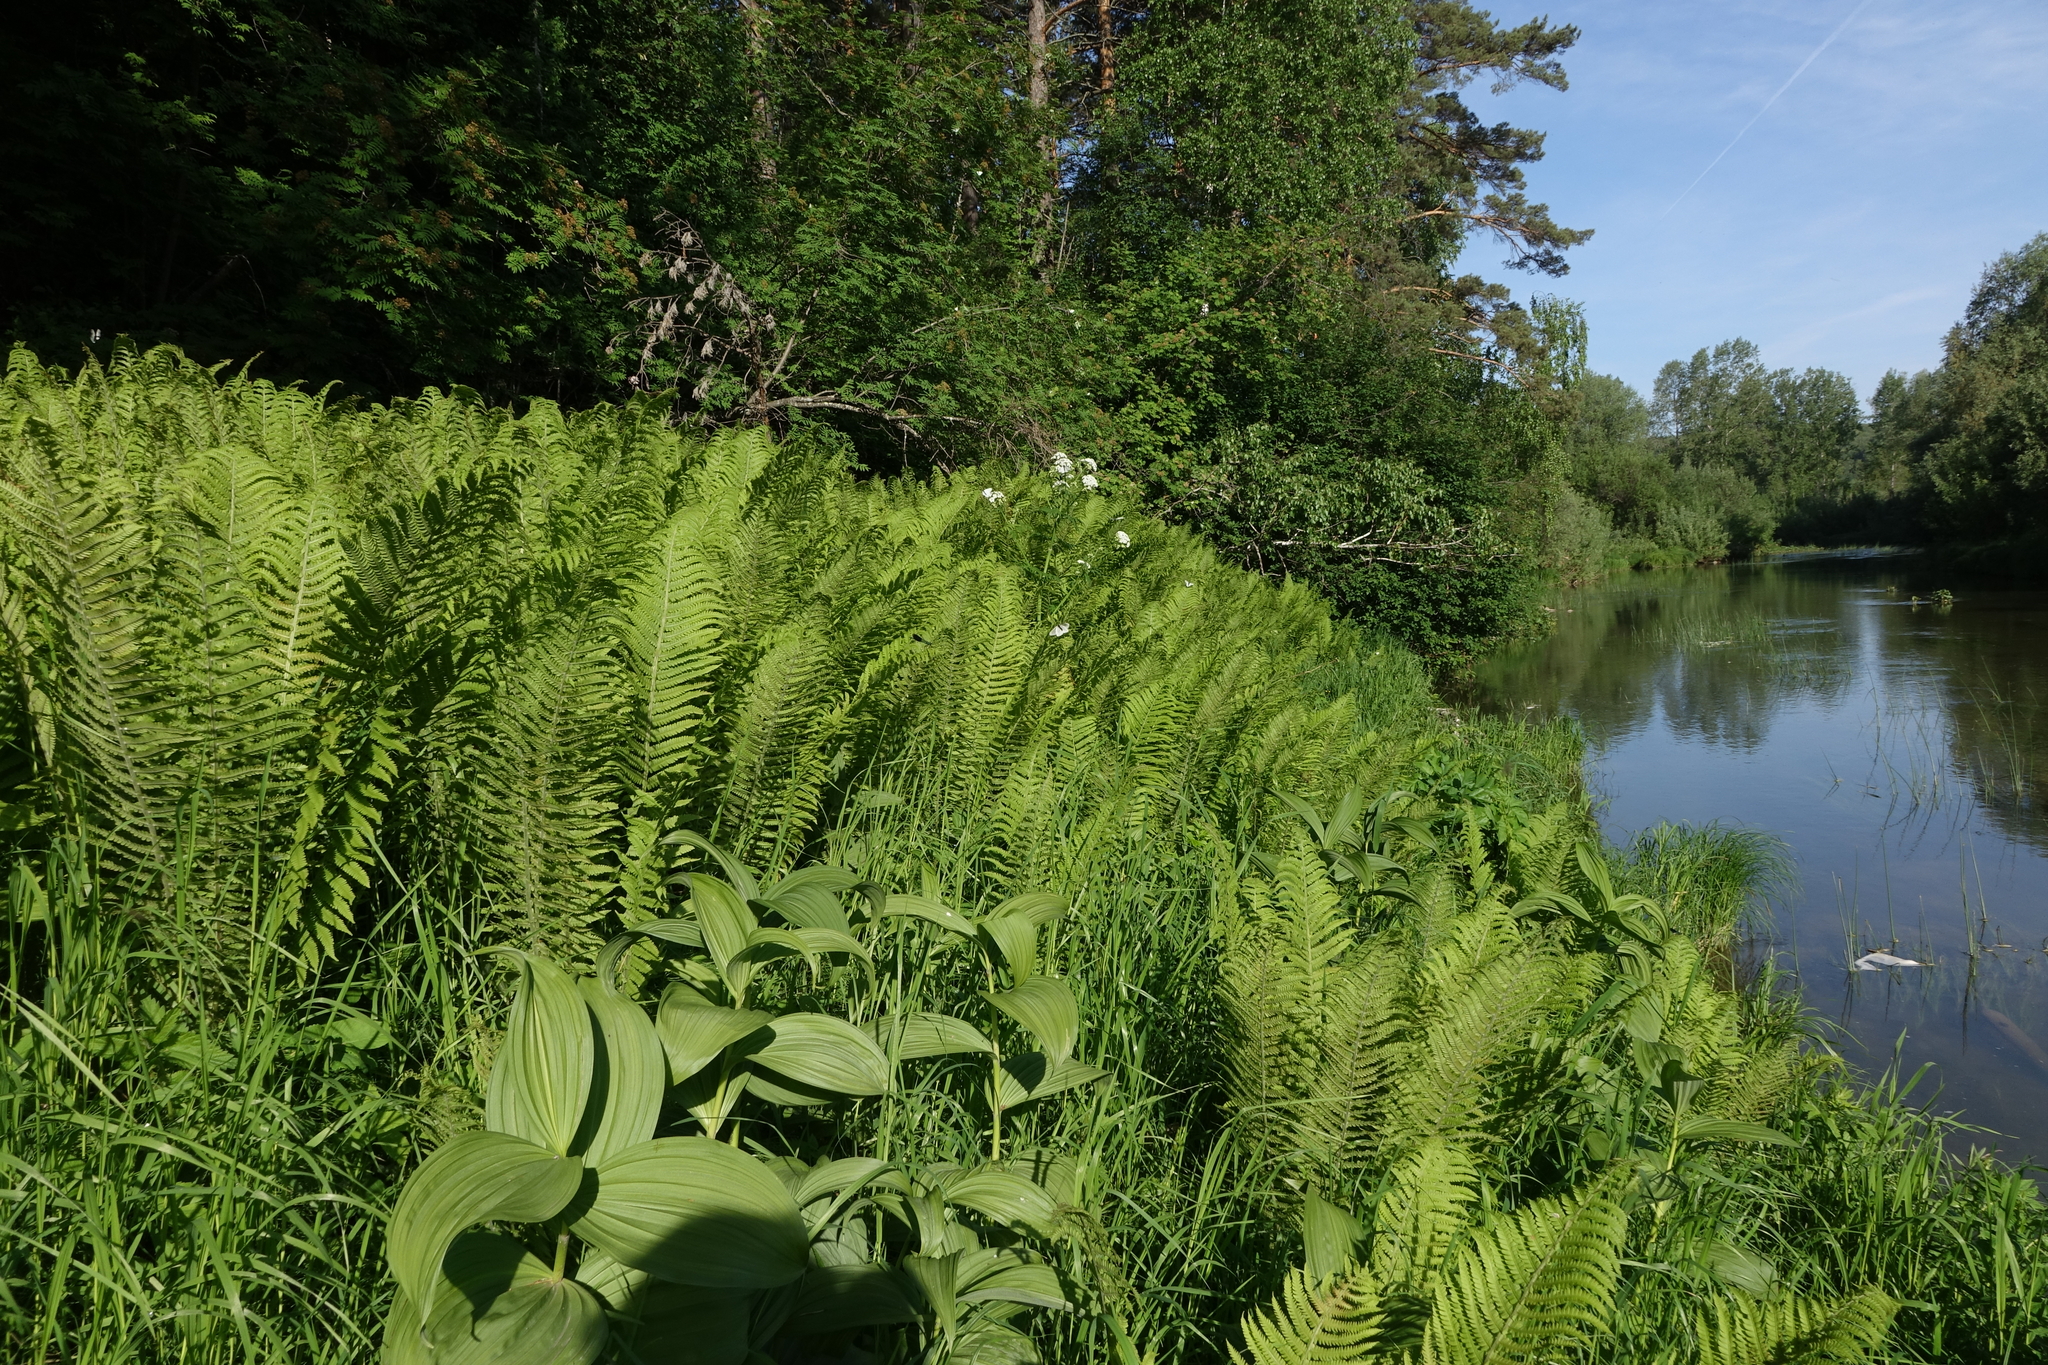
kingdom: Plantae
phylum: Tracheophyta
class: Polypodiopsida
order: Polypodiales
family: Onocleaceae
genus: Matteuccia
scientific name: Matteuccia struthiopteris
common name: Ostrich fern
